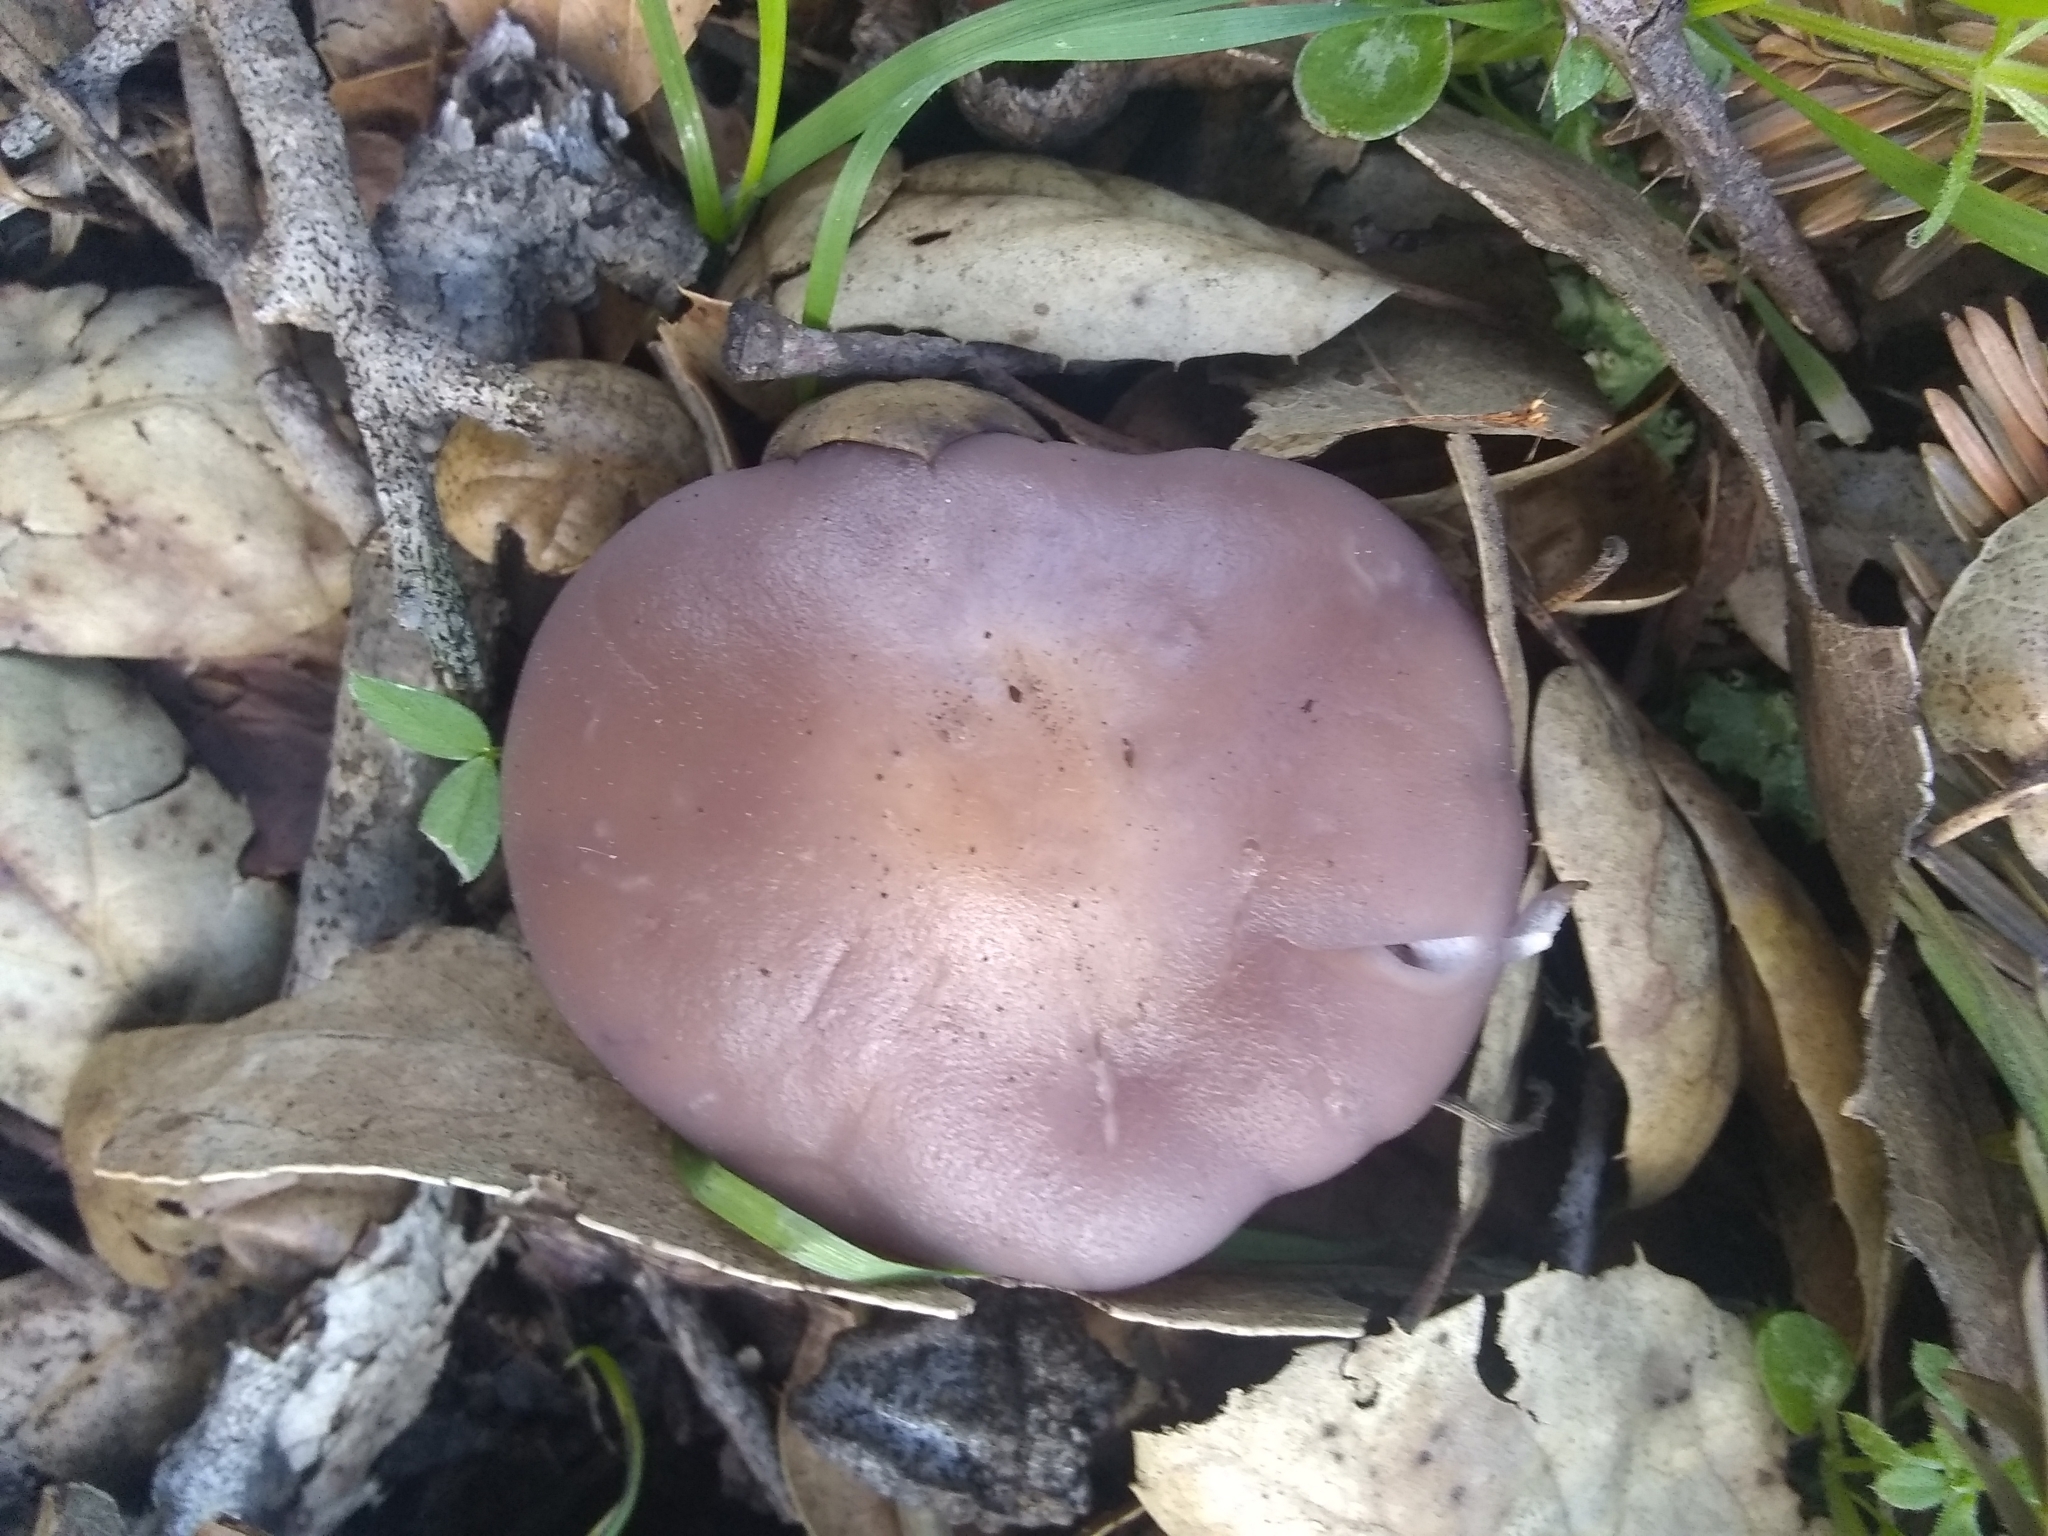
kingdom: Fungi
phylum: Basidiomycota
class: Agaricomycetes
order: Agaricales
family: Tricholomataceae
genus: Collybia
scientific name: Collybia
